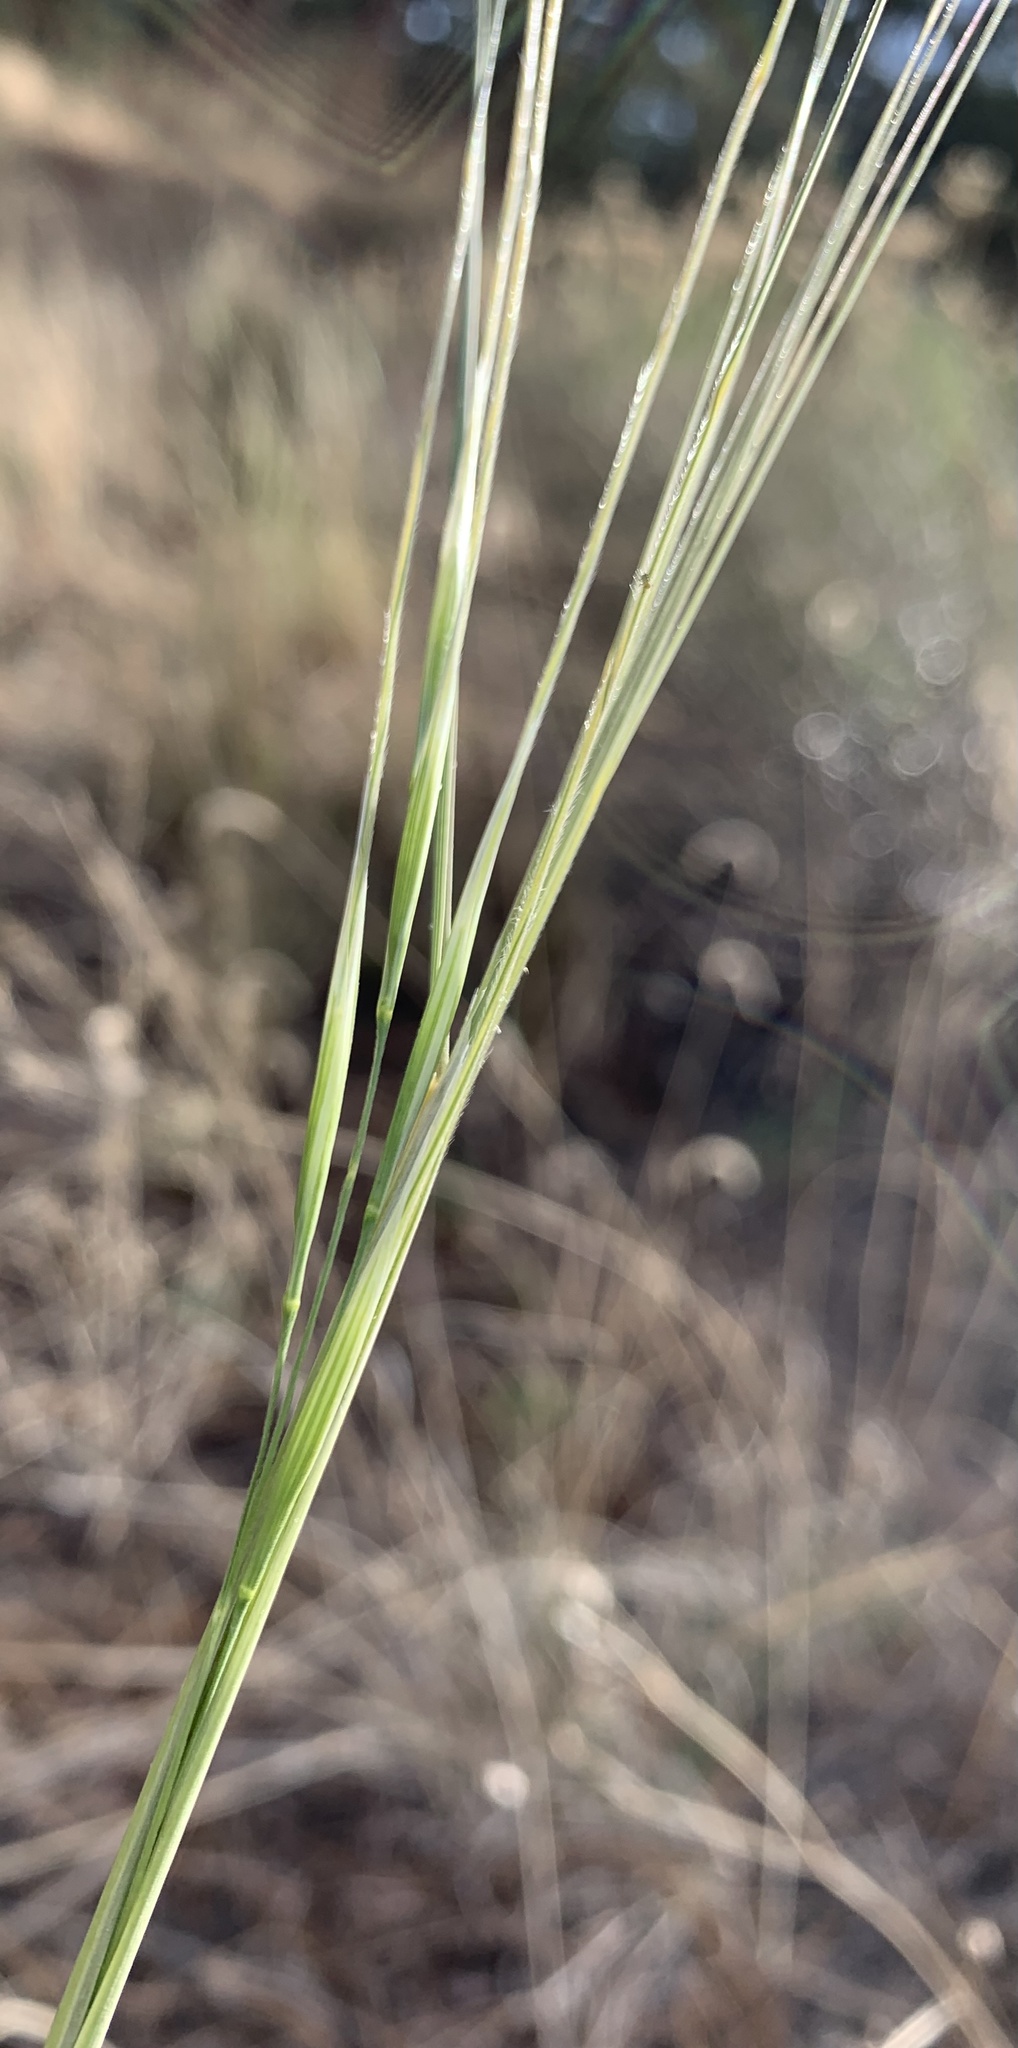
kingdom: Plantae
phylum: Tracheophyta
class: Liliopsida
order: Poales
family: Poaceae
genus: Hesperostipa
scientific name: Hesperostipa comata
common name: Needle-and-thread grass
